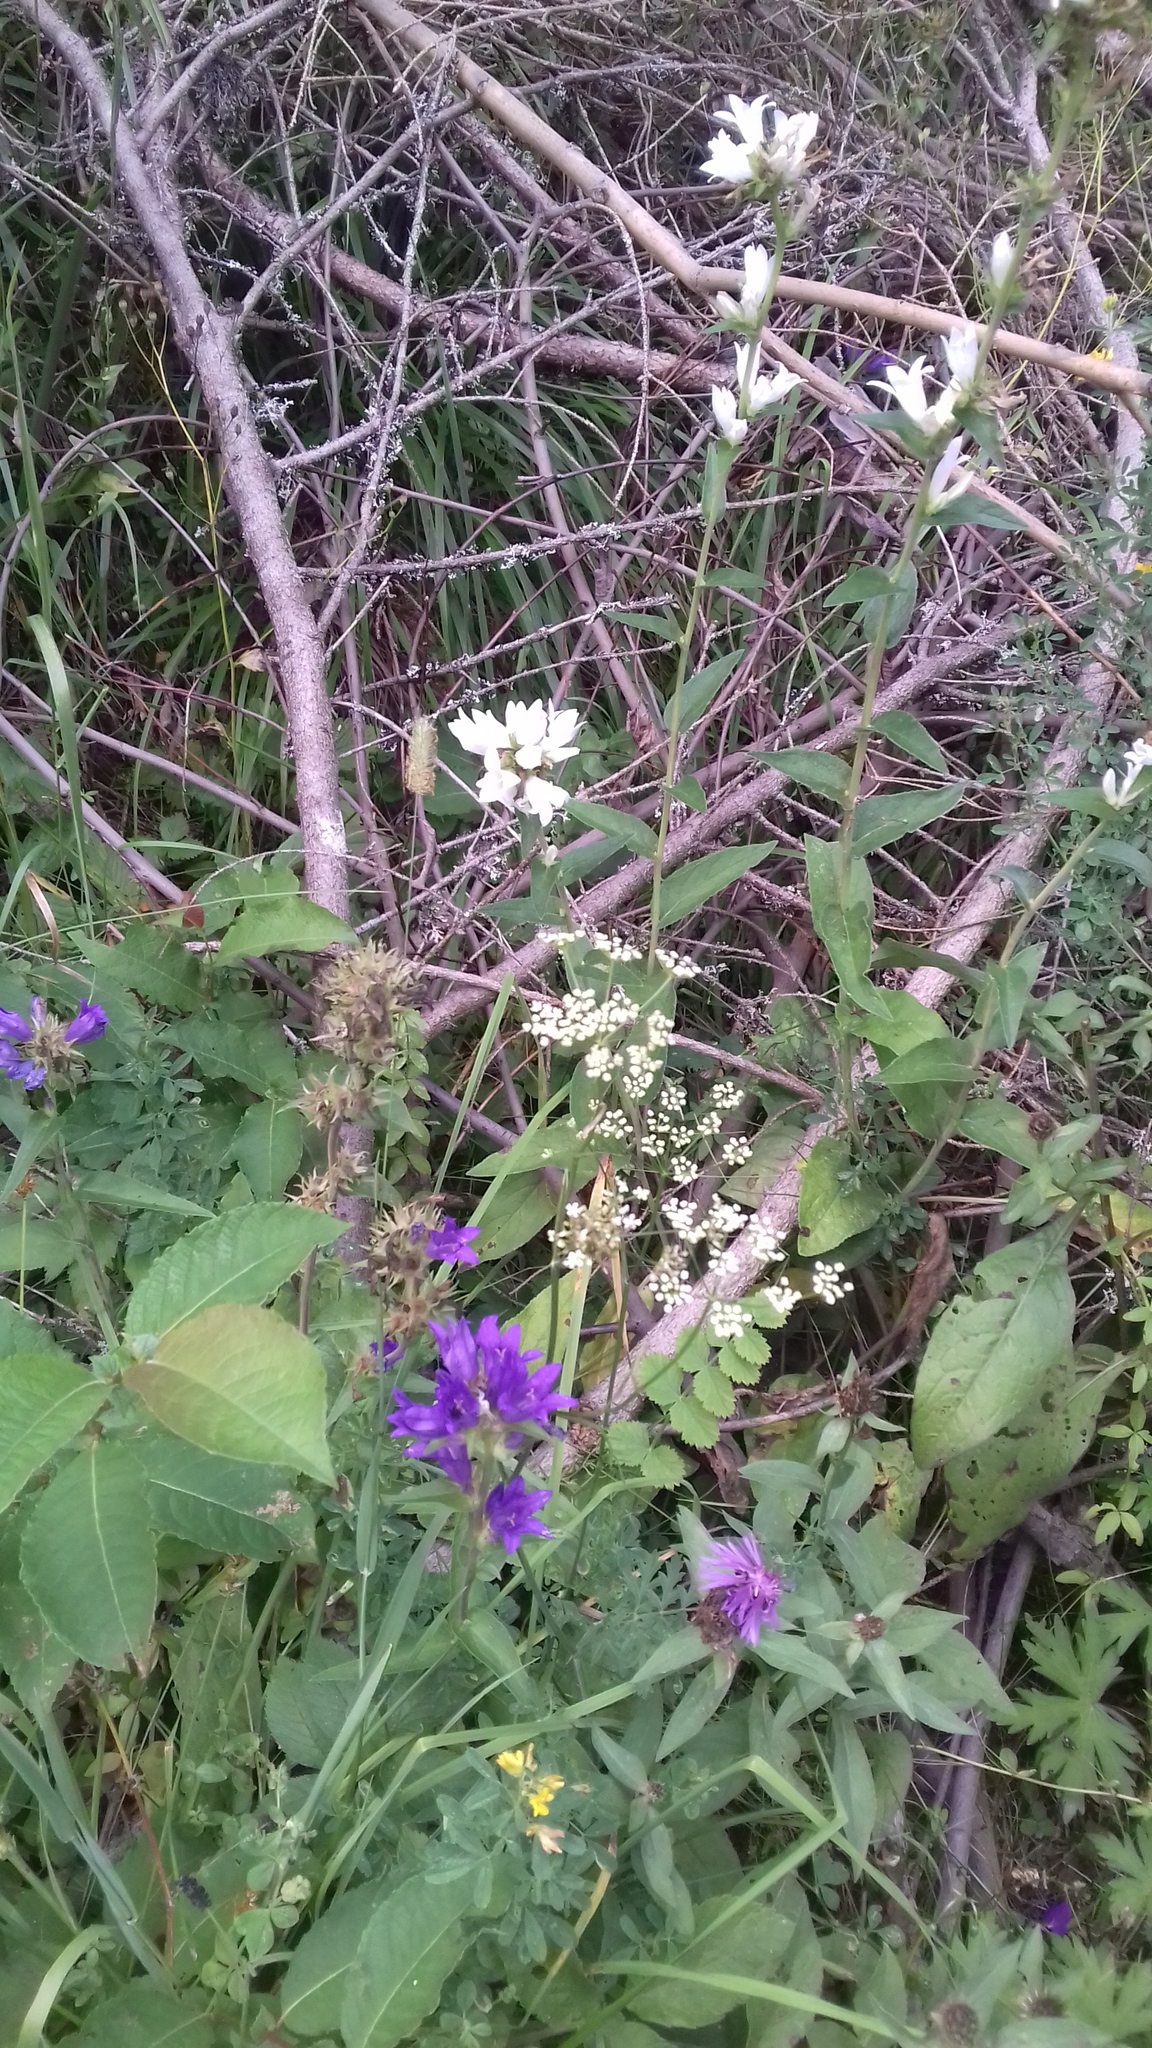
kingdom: Plantae
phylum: Tracheophyta
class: Magnoliopsida
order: Asterales
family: Campanulaceae
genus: Campanula
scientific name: Campanula glomerata
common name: Clustered bellflower
